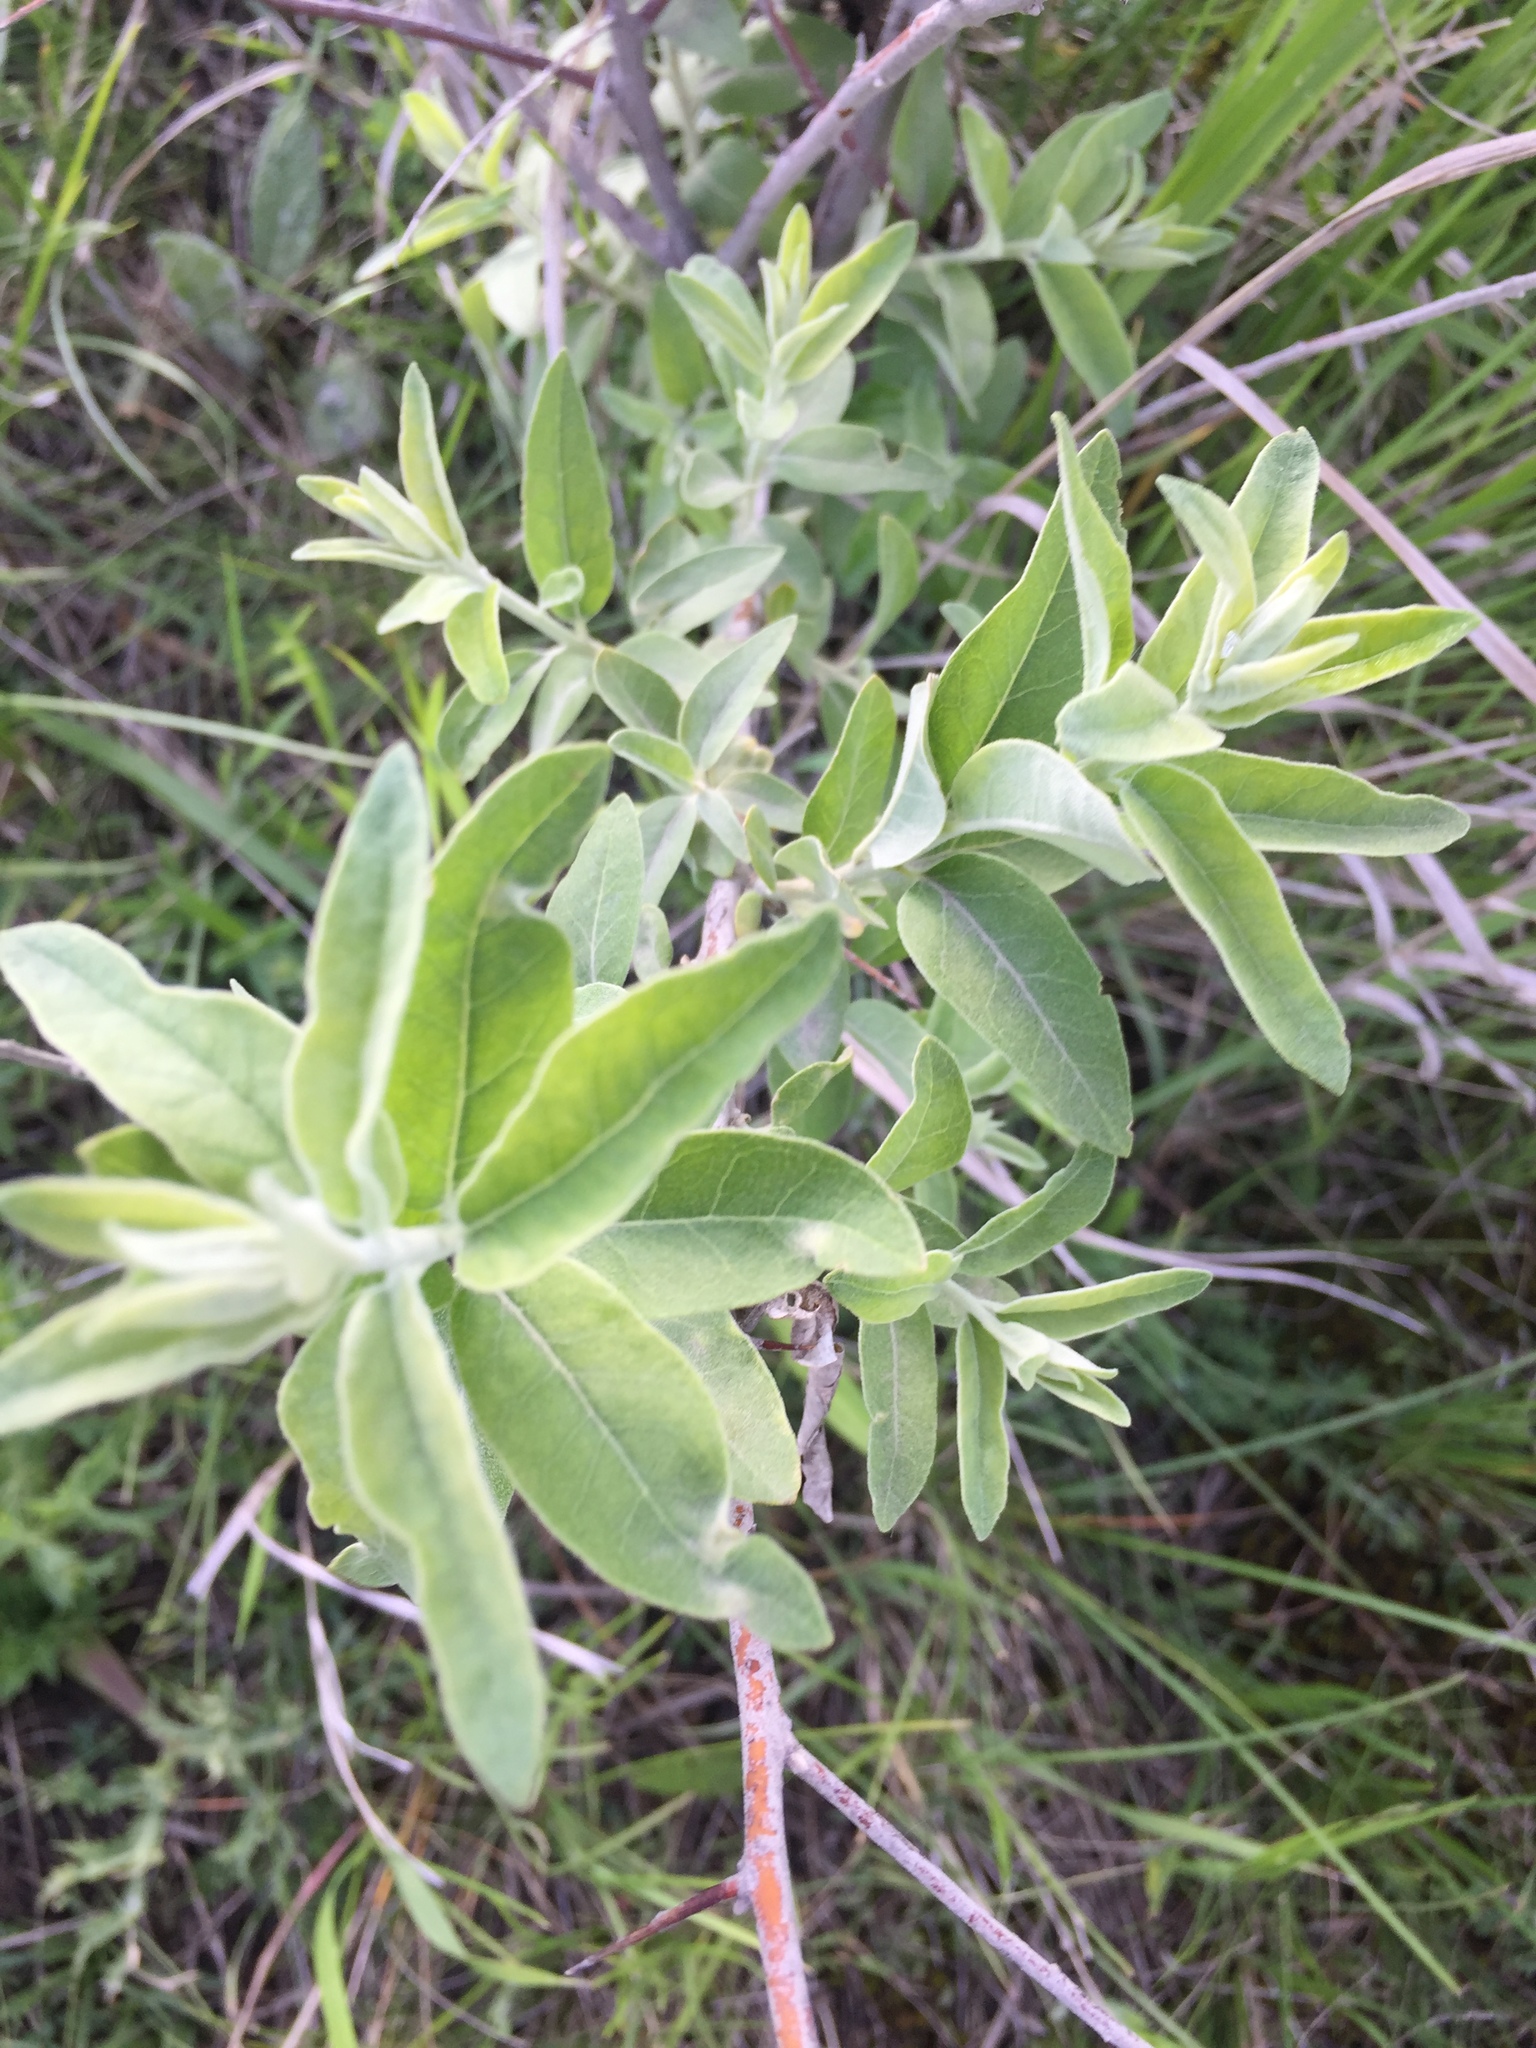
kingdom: Plantae
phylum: Tracheophyta
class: Magnoliopsida
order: Rosales
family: Elaeagnaceae
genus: Elaeagnus
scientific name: Elaeagnus angustifolia
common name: Russian olive
